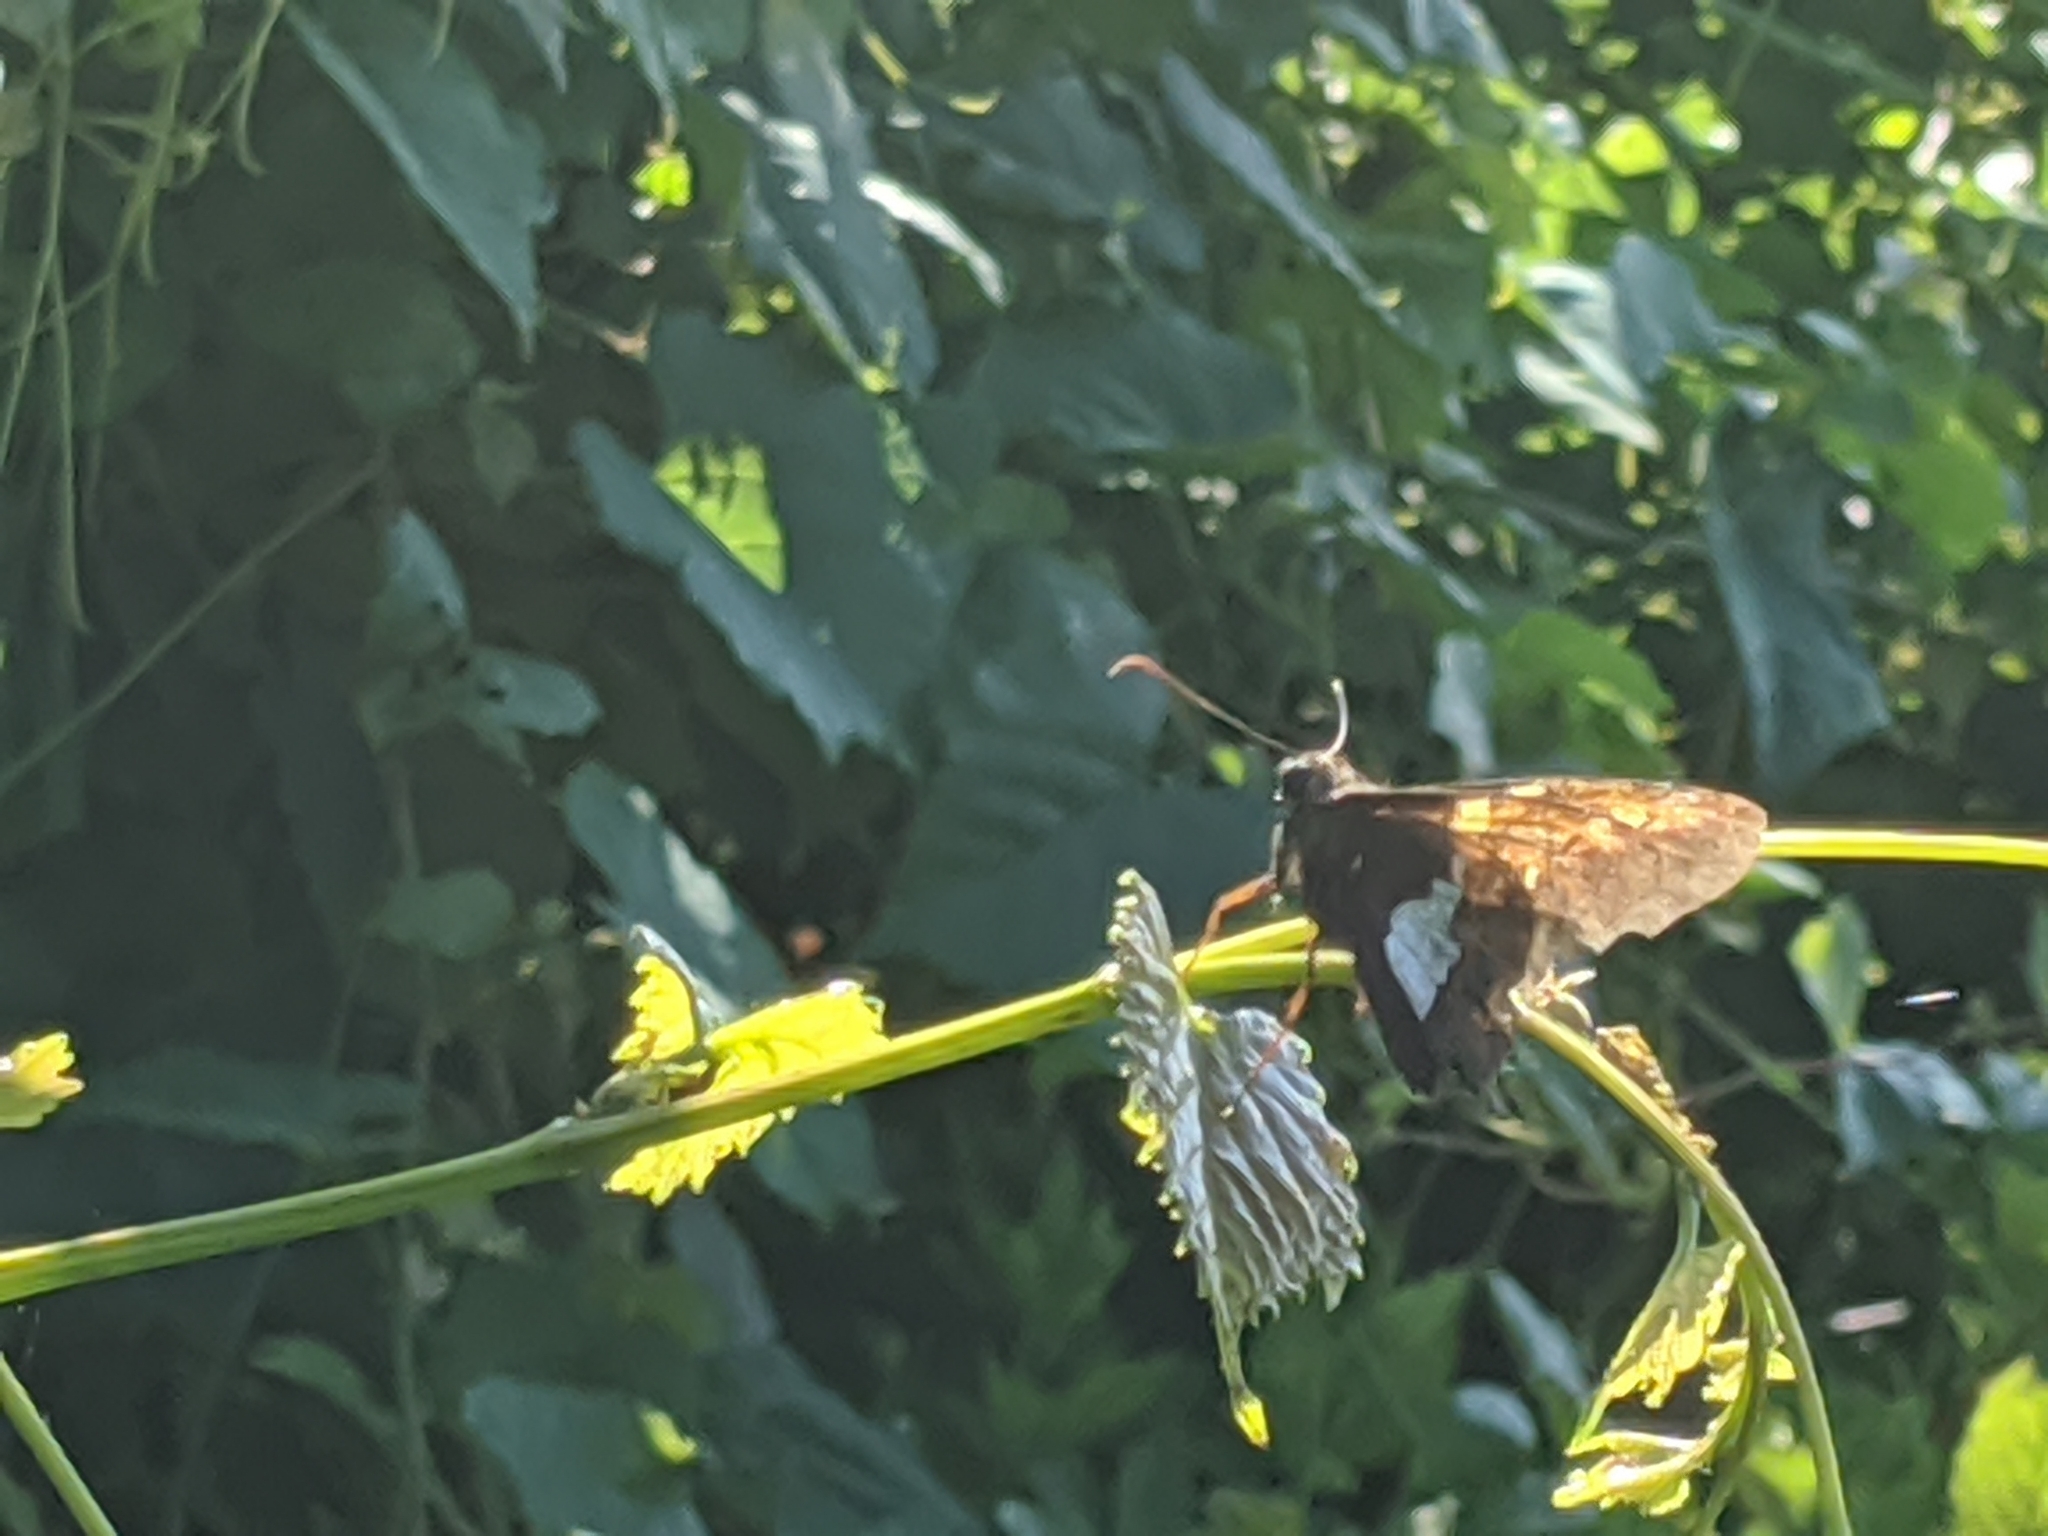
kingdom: Animalia
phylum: Arthropoda
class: Insecta
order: Lepidoptera
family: Hesperiidae
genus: Epargyreus
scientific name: Epargyreus clarus
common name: Silver-spotted skipper
